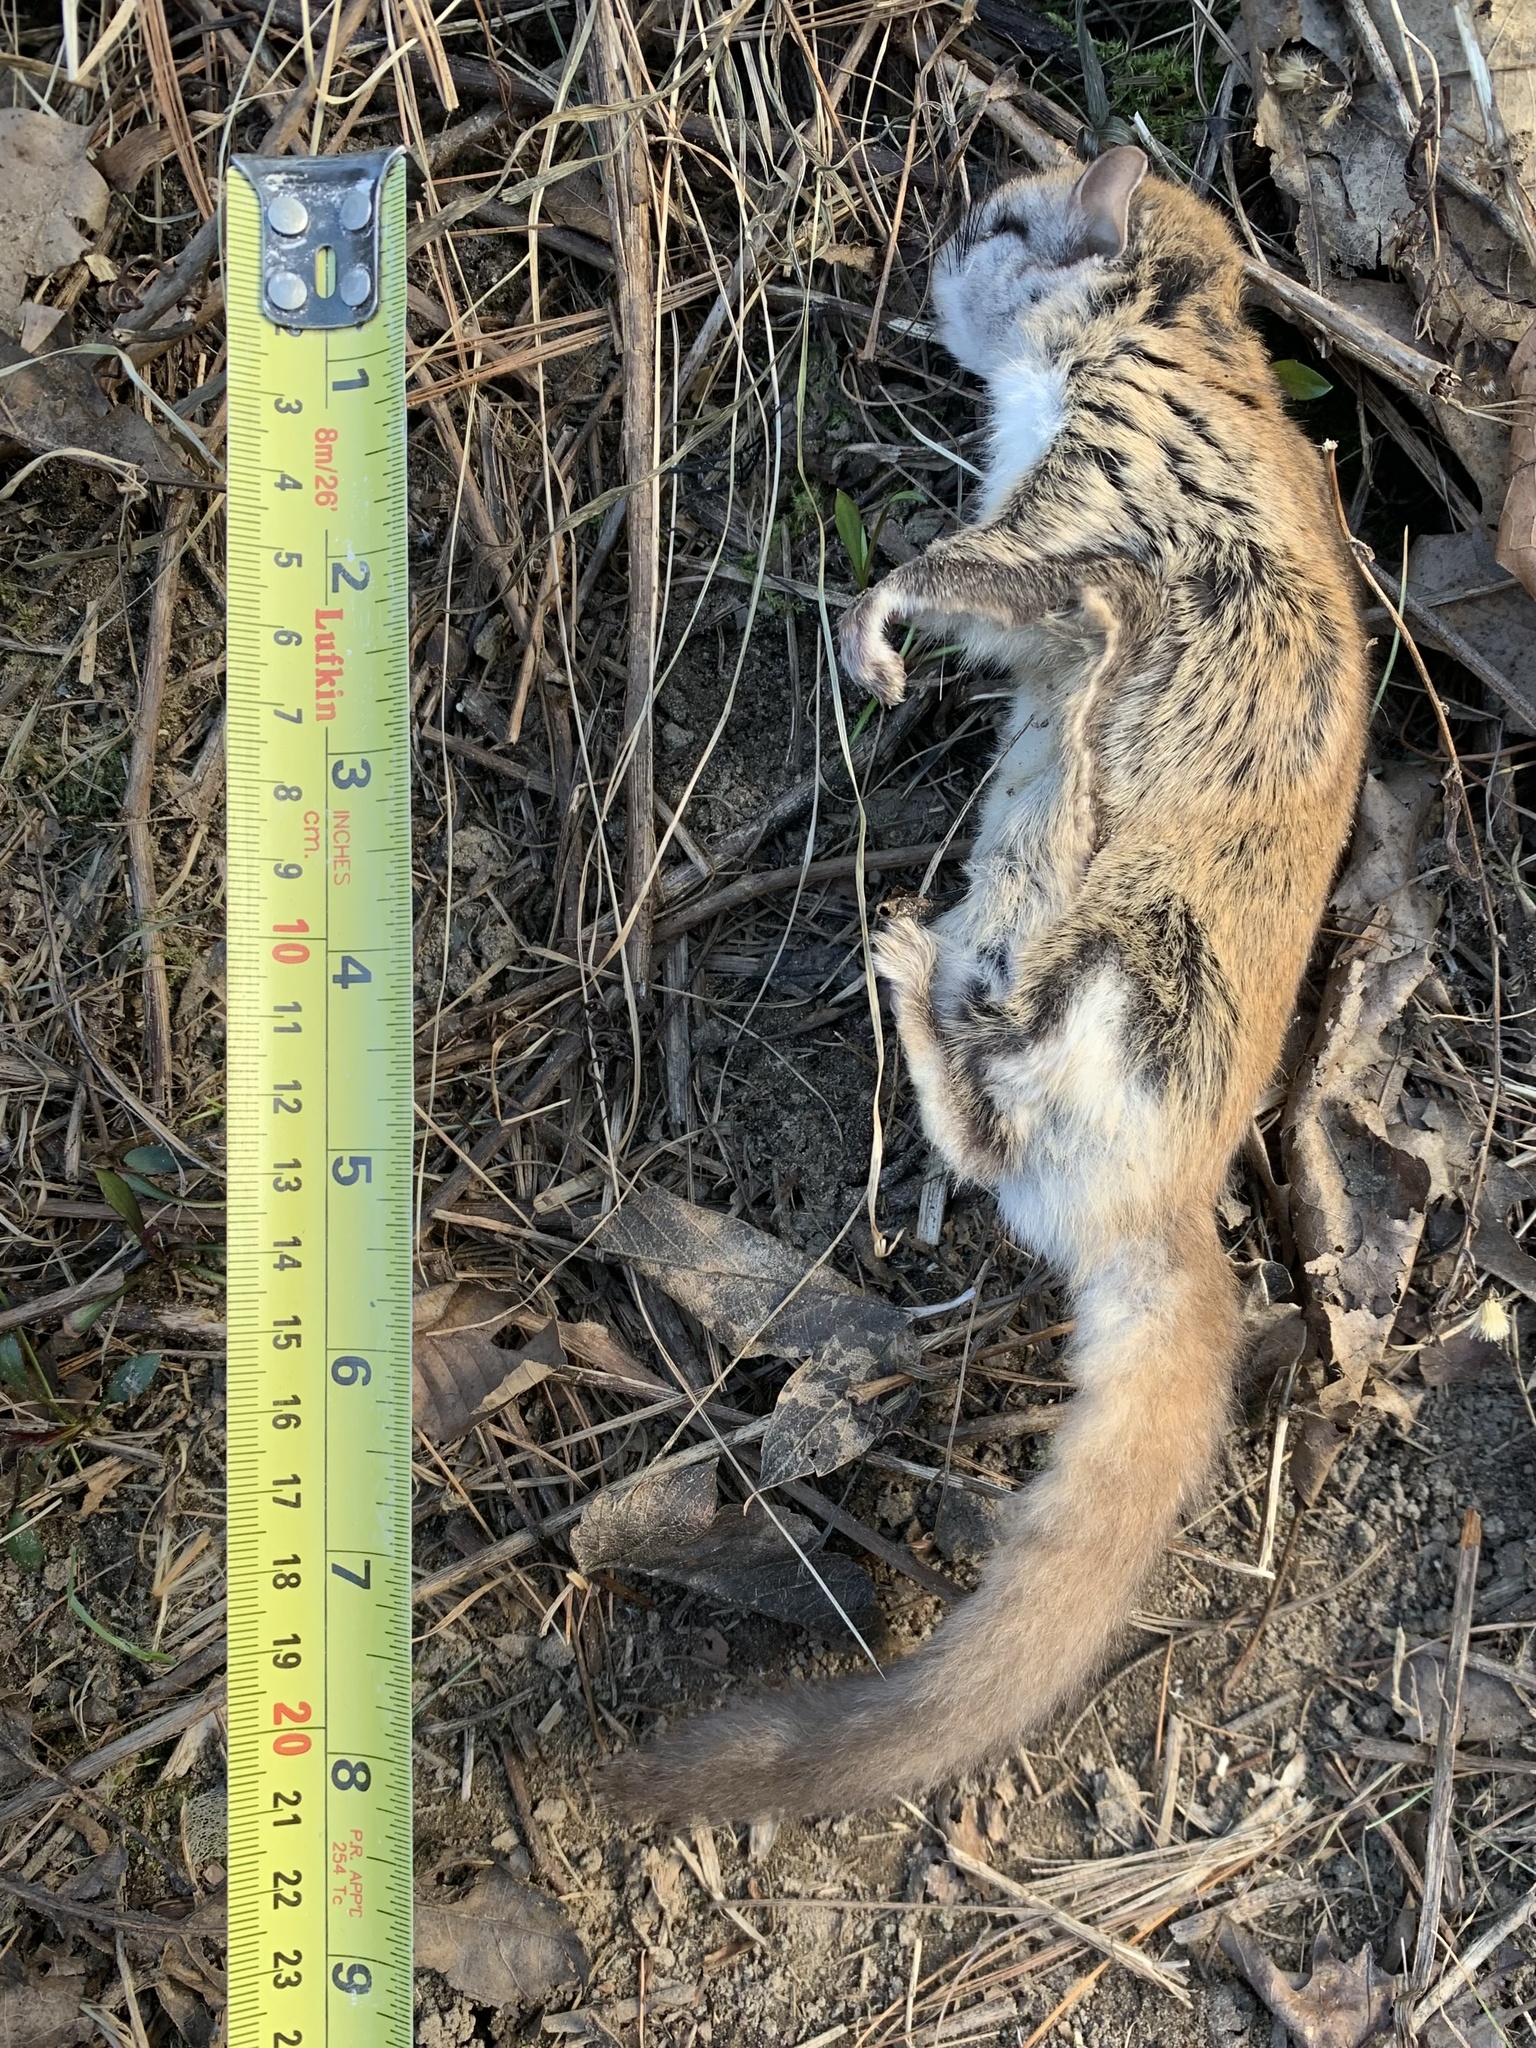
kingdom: Animalia
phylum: Chordata
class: Mammalia
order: Rodentia
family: Sciuridae
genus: Glaucomys
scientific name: Glaucomys sabrinus
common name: Northern flying squirrel
